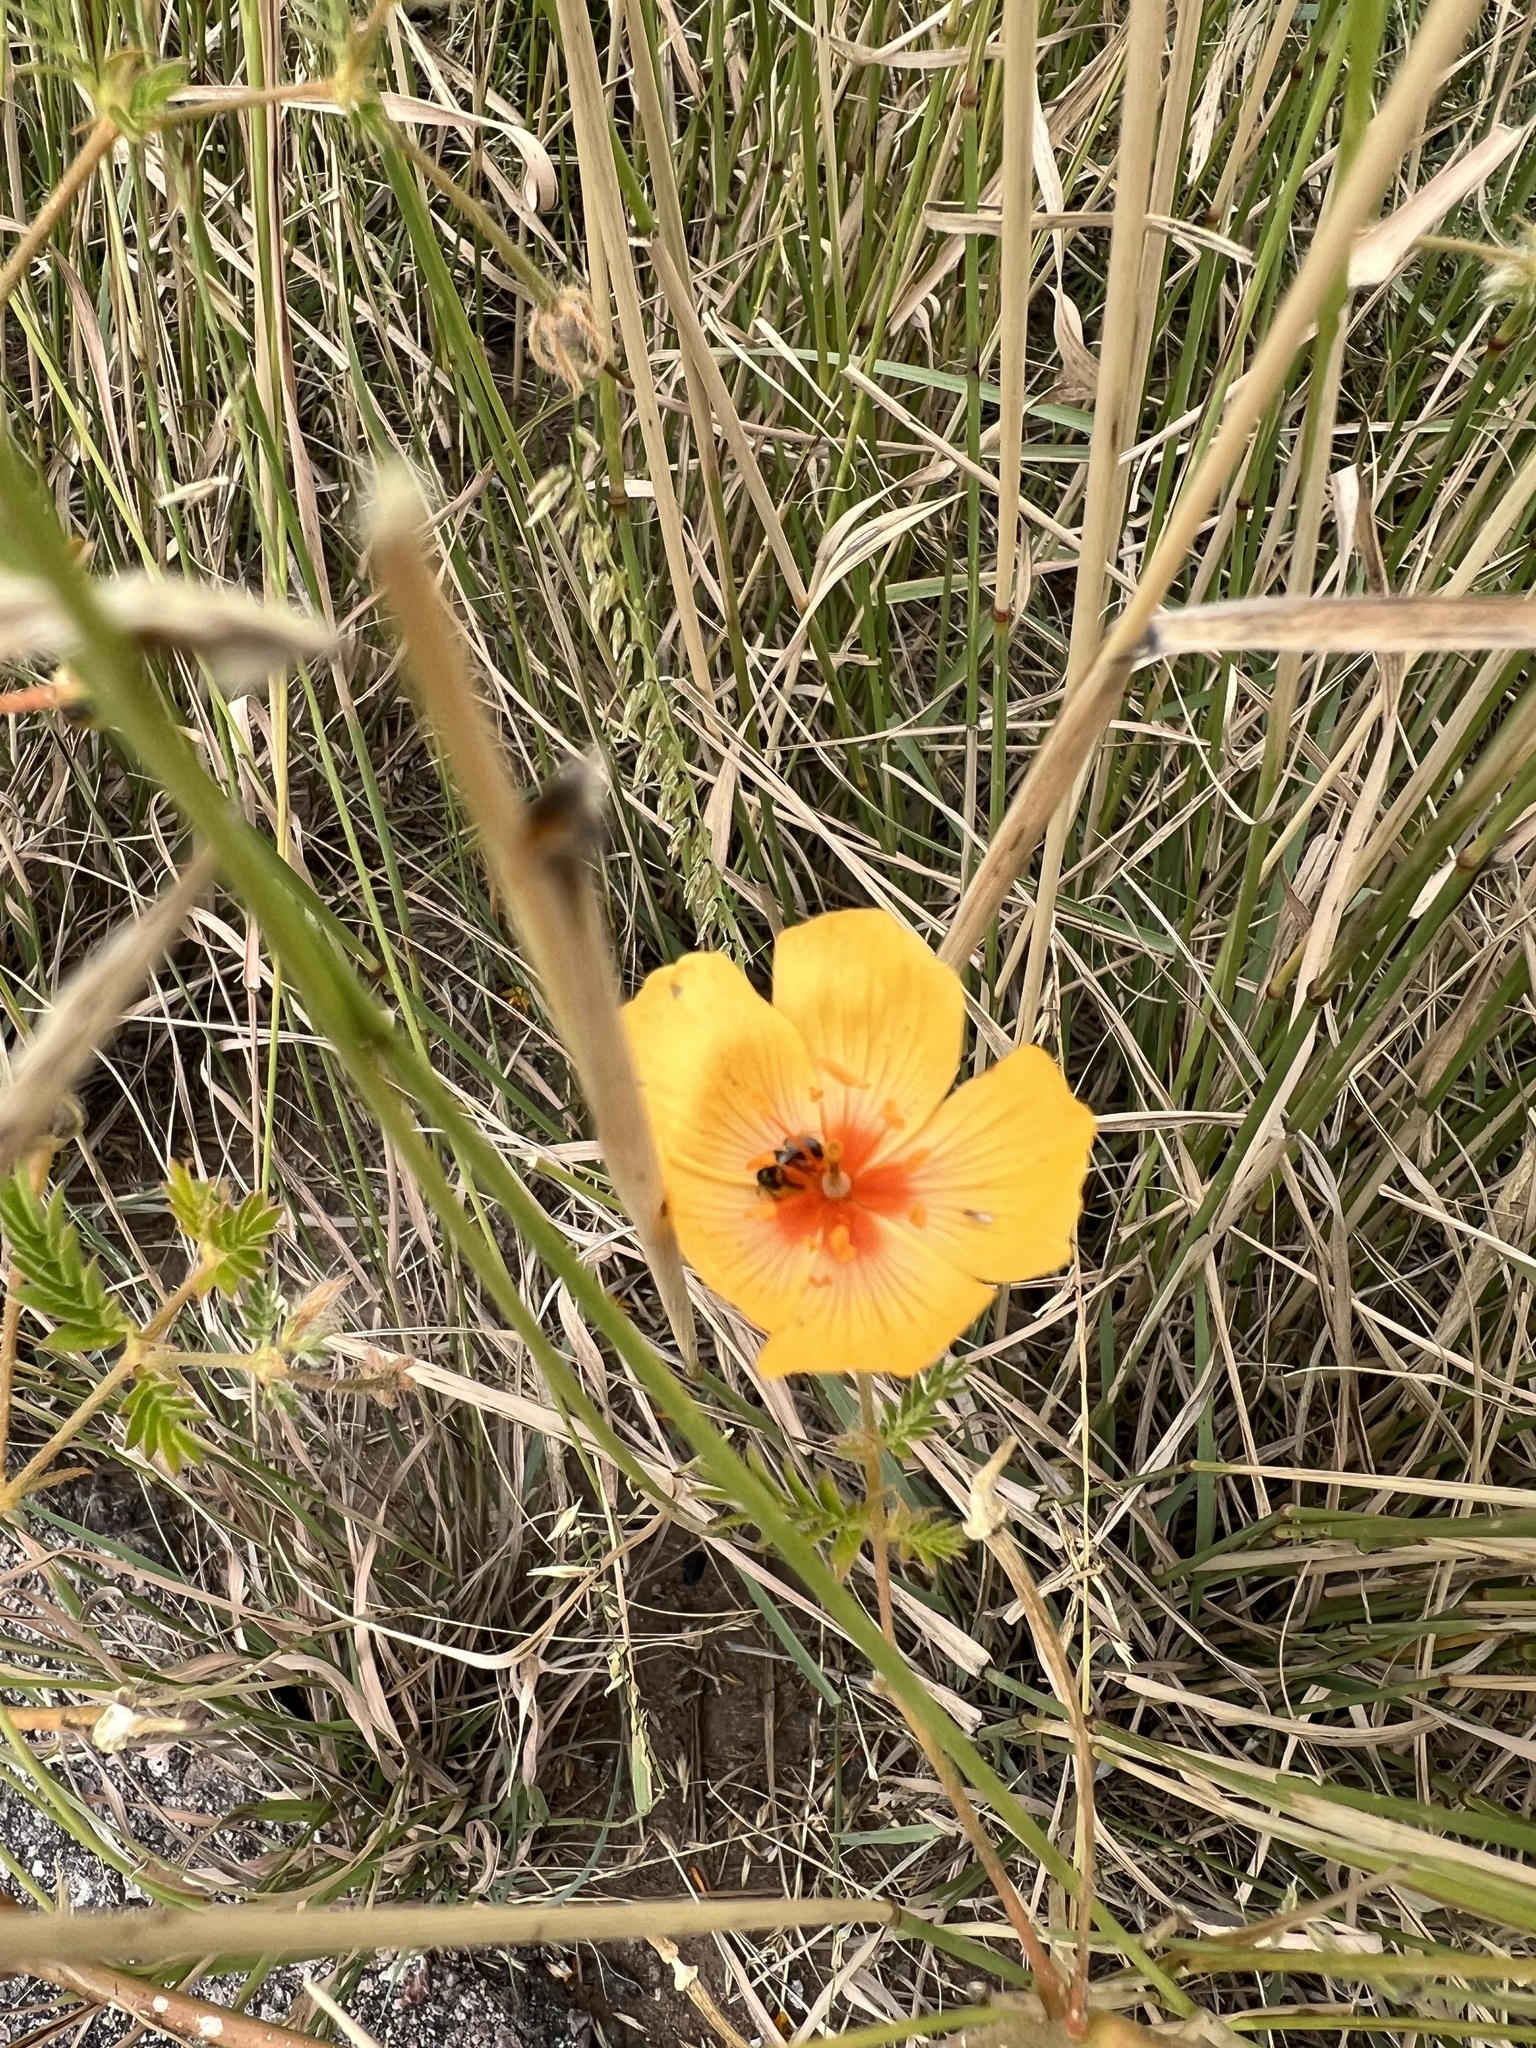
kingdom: Plantae
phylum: Tracheophyta
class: Magnoliopsida
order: Zygophyllales
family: Zygophyllaceae
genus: Kallstroemia
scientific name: Kallstroemia grandiflora
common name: Arizona-poppy
